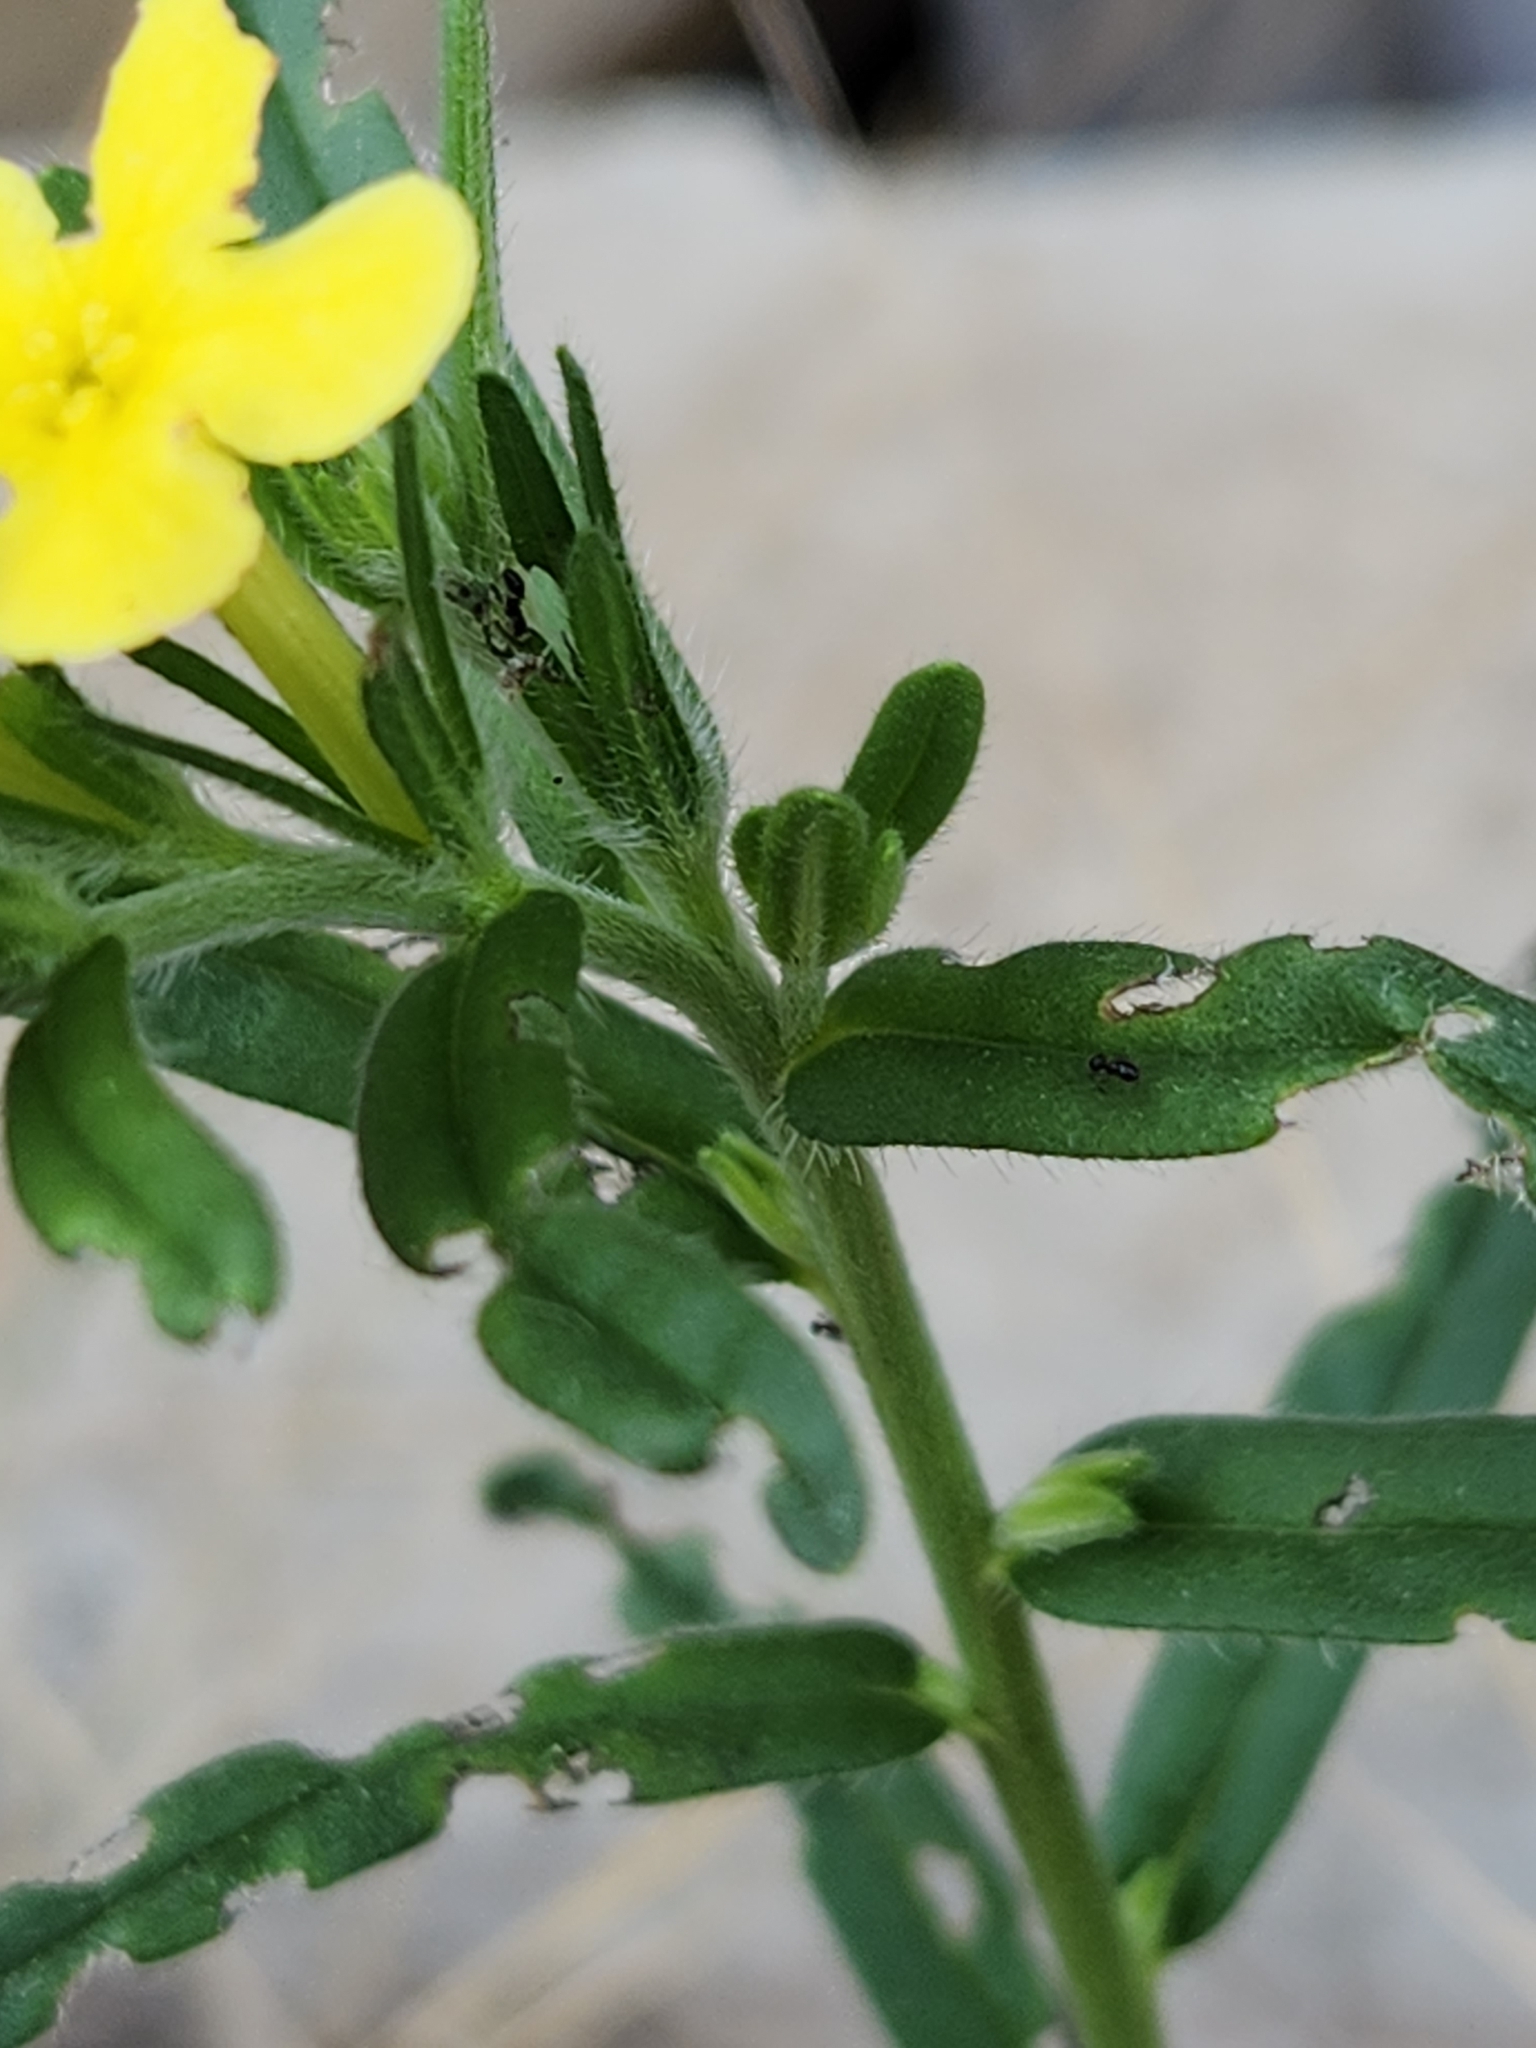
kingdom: Plantae
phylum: Tracheophyta
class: Magnoliopsida
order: Boraginales
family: Boraginaceae
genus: Lithospermum
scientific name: Lithospermum mirabile
